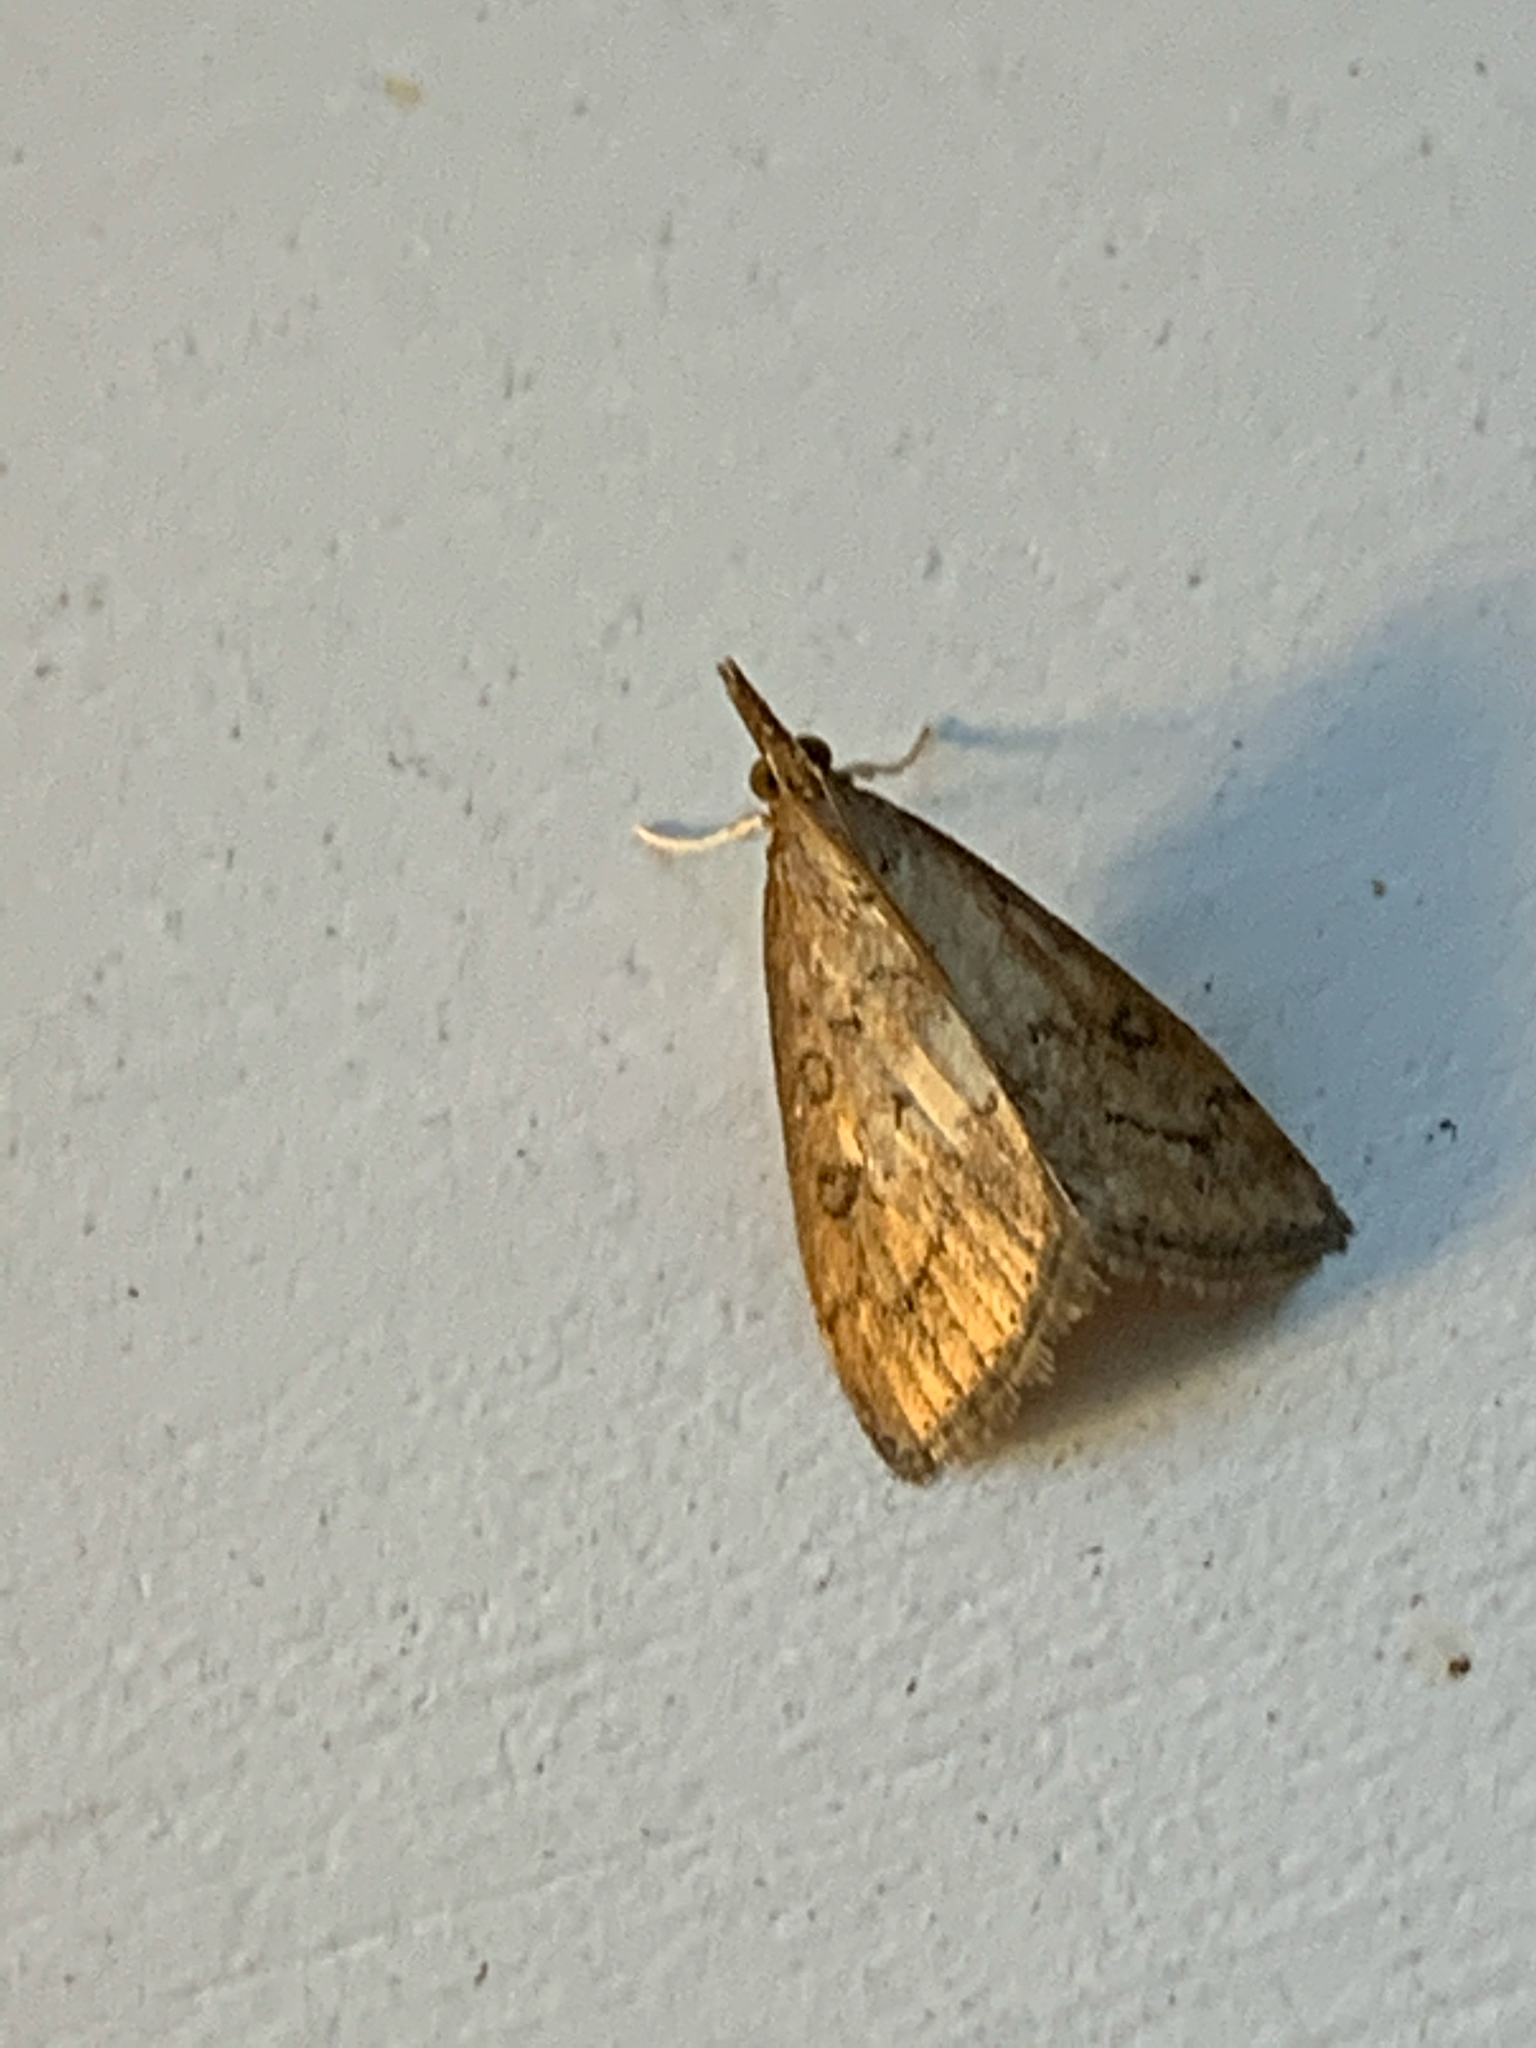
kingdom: Animalia
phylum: Arthropoda
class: Insecta
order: Lepidoptera
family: Crambidae
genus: Udea
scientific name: Udea rubigalis
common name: Celery leaftier moth
